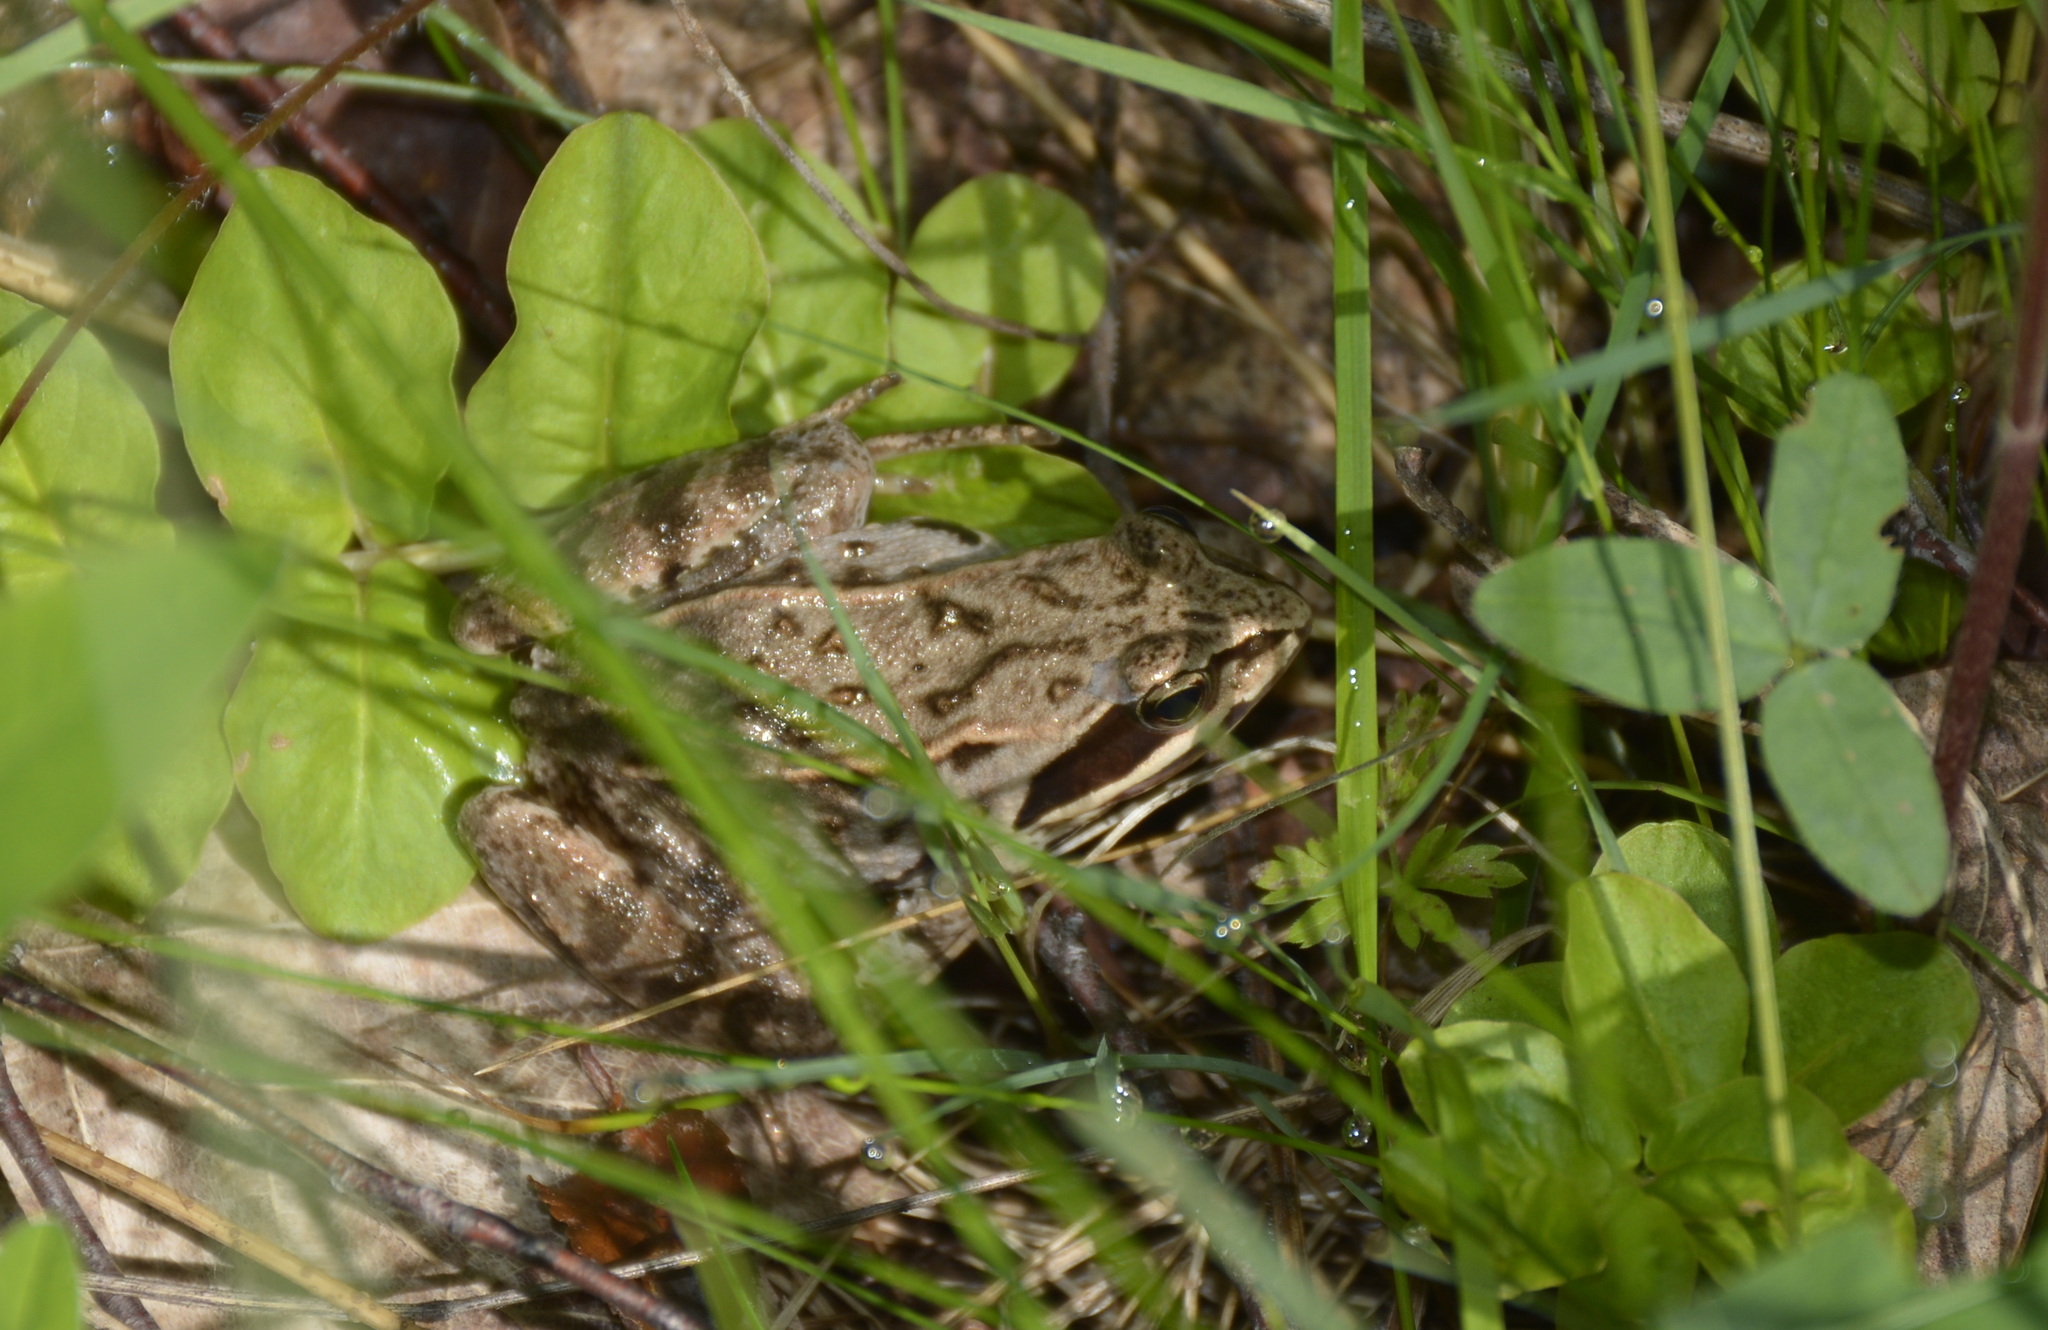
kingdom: Animalia
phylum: Chordata
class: Amphibia
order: Anura
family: Ranidae
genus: Rana
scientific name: Rana arvalis
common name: Moor frog
